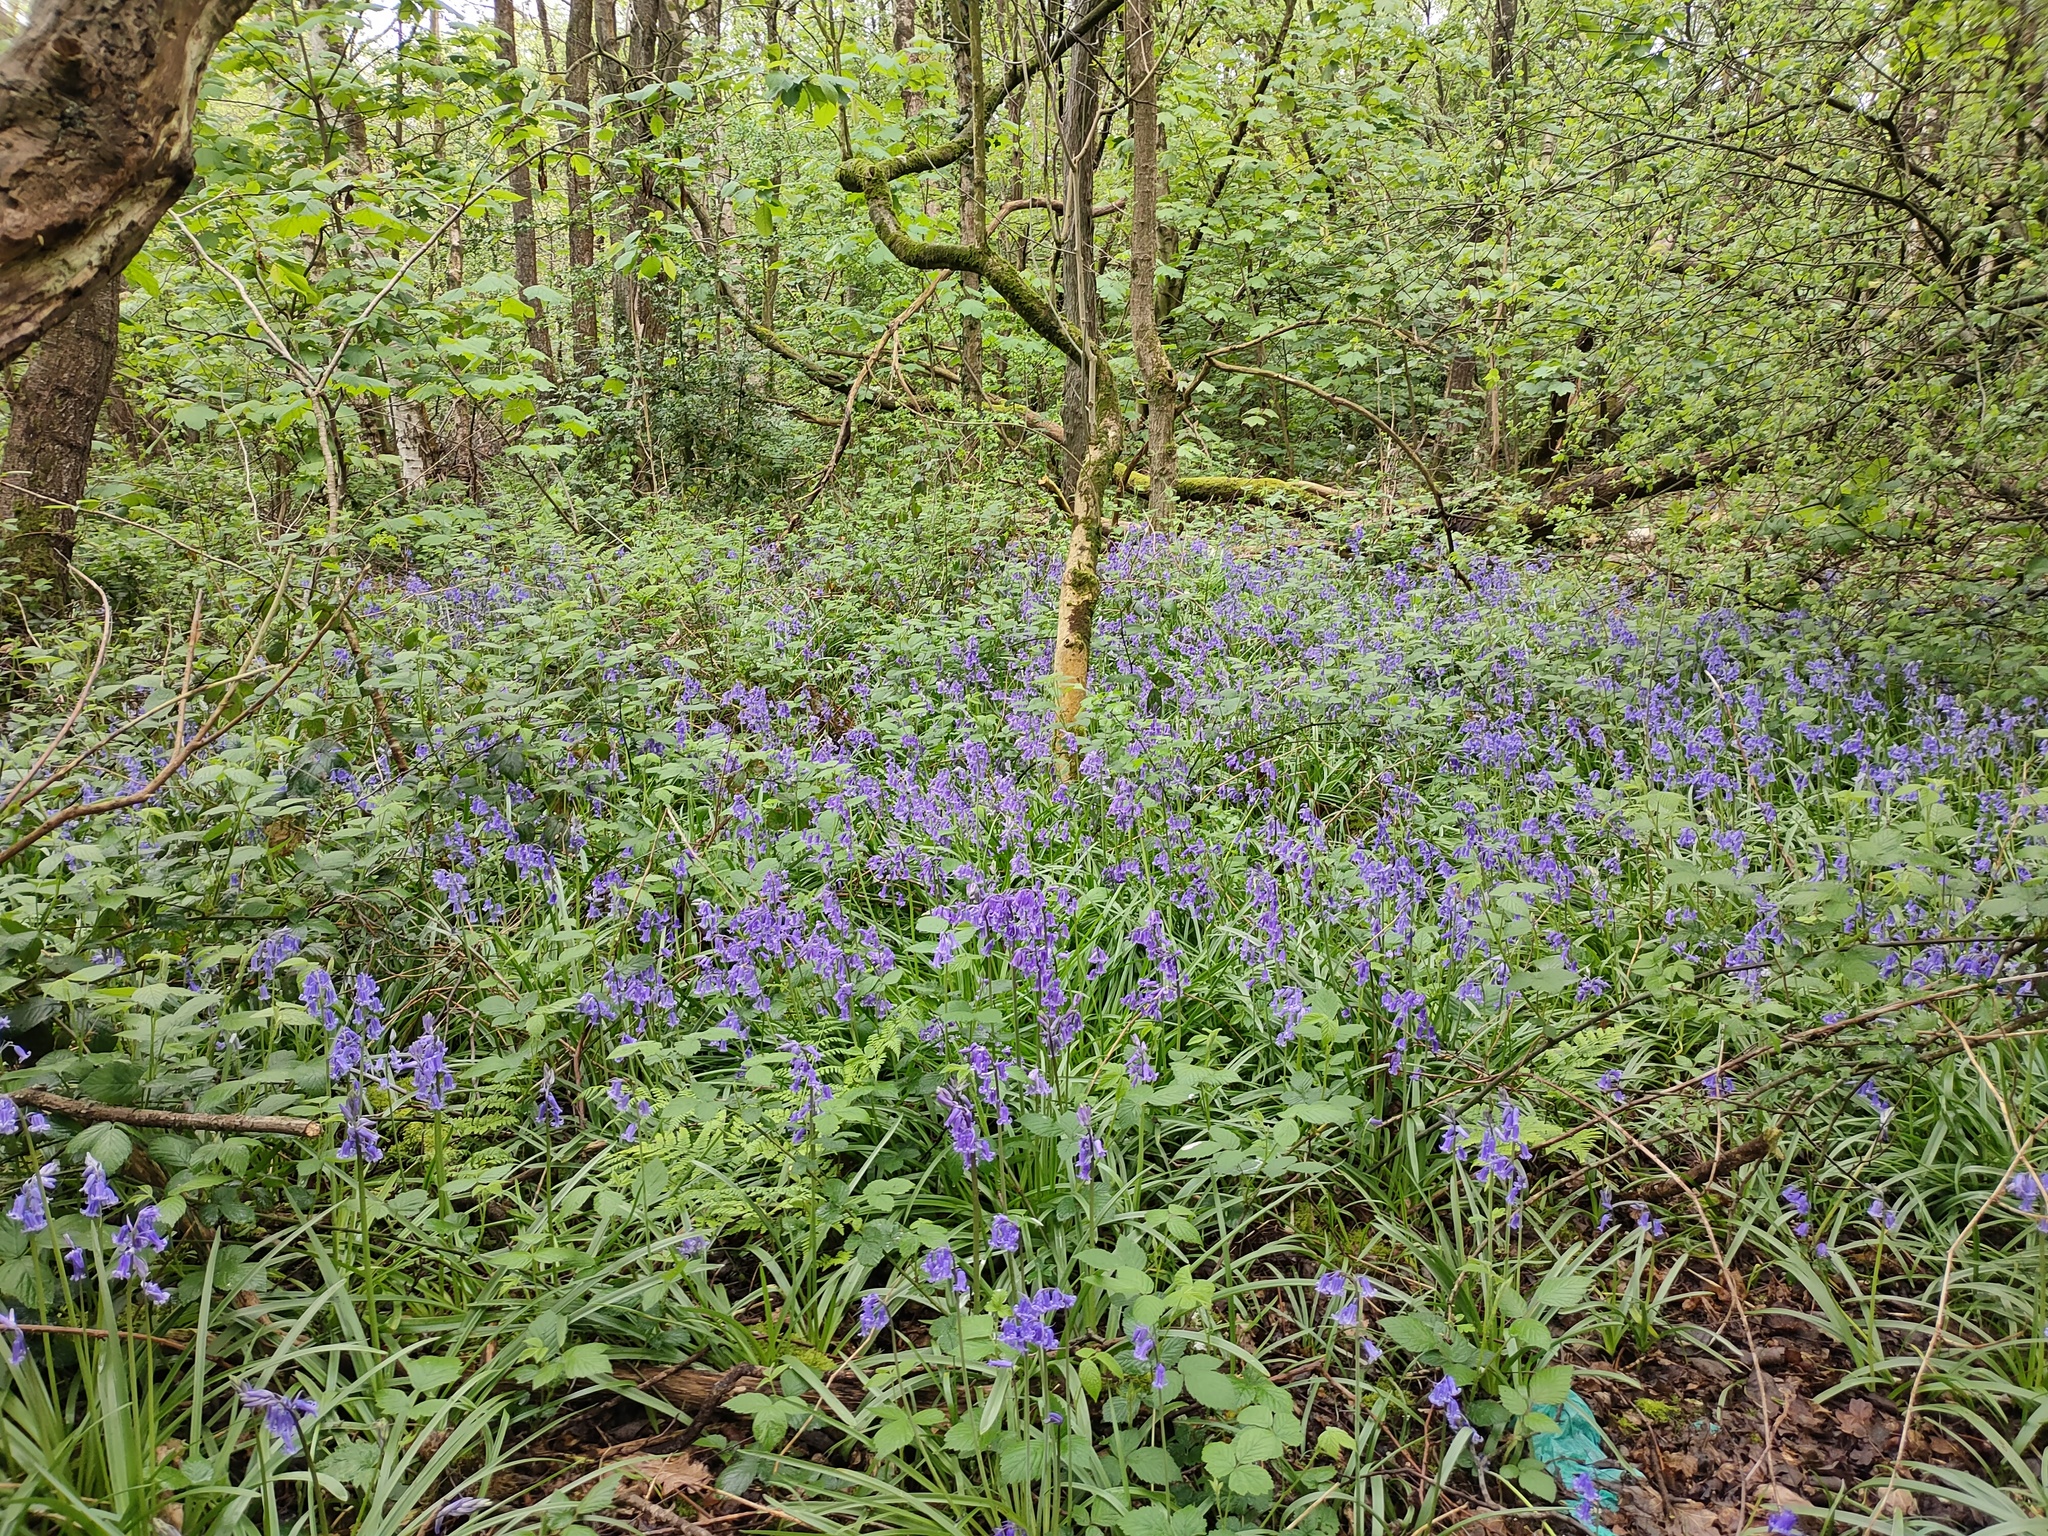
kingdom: Plantae
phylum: Tracheophyta
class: Liliopsida
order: Asparagales
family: Asparagaceae
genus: Hyacinthoides
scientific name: Hyacinthoides non-scripta
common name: Bluebell
